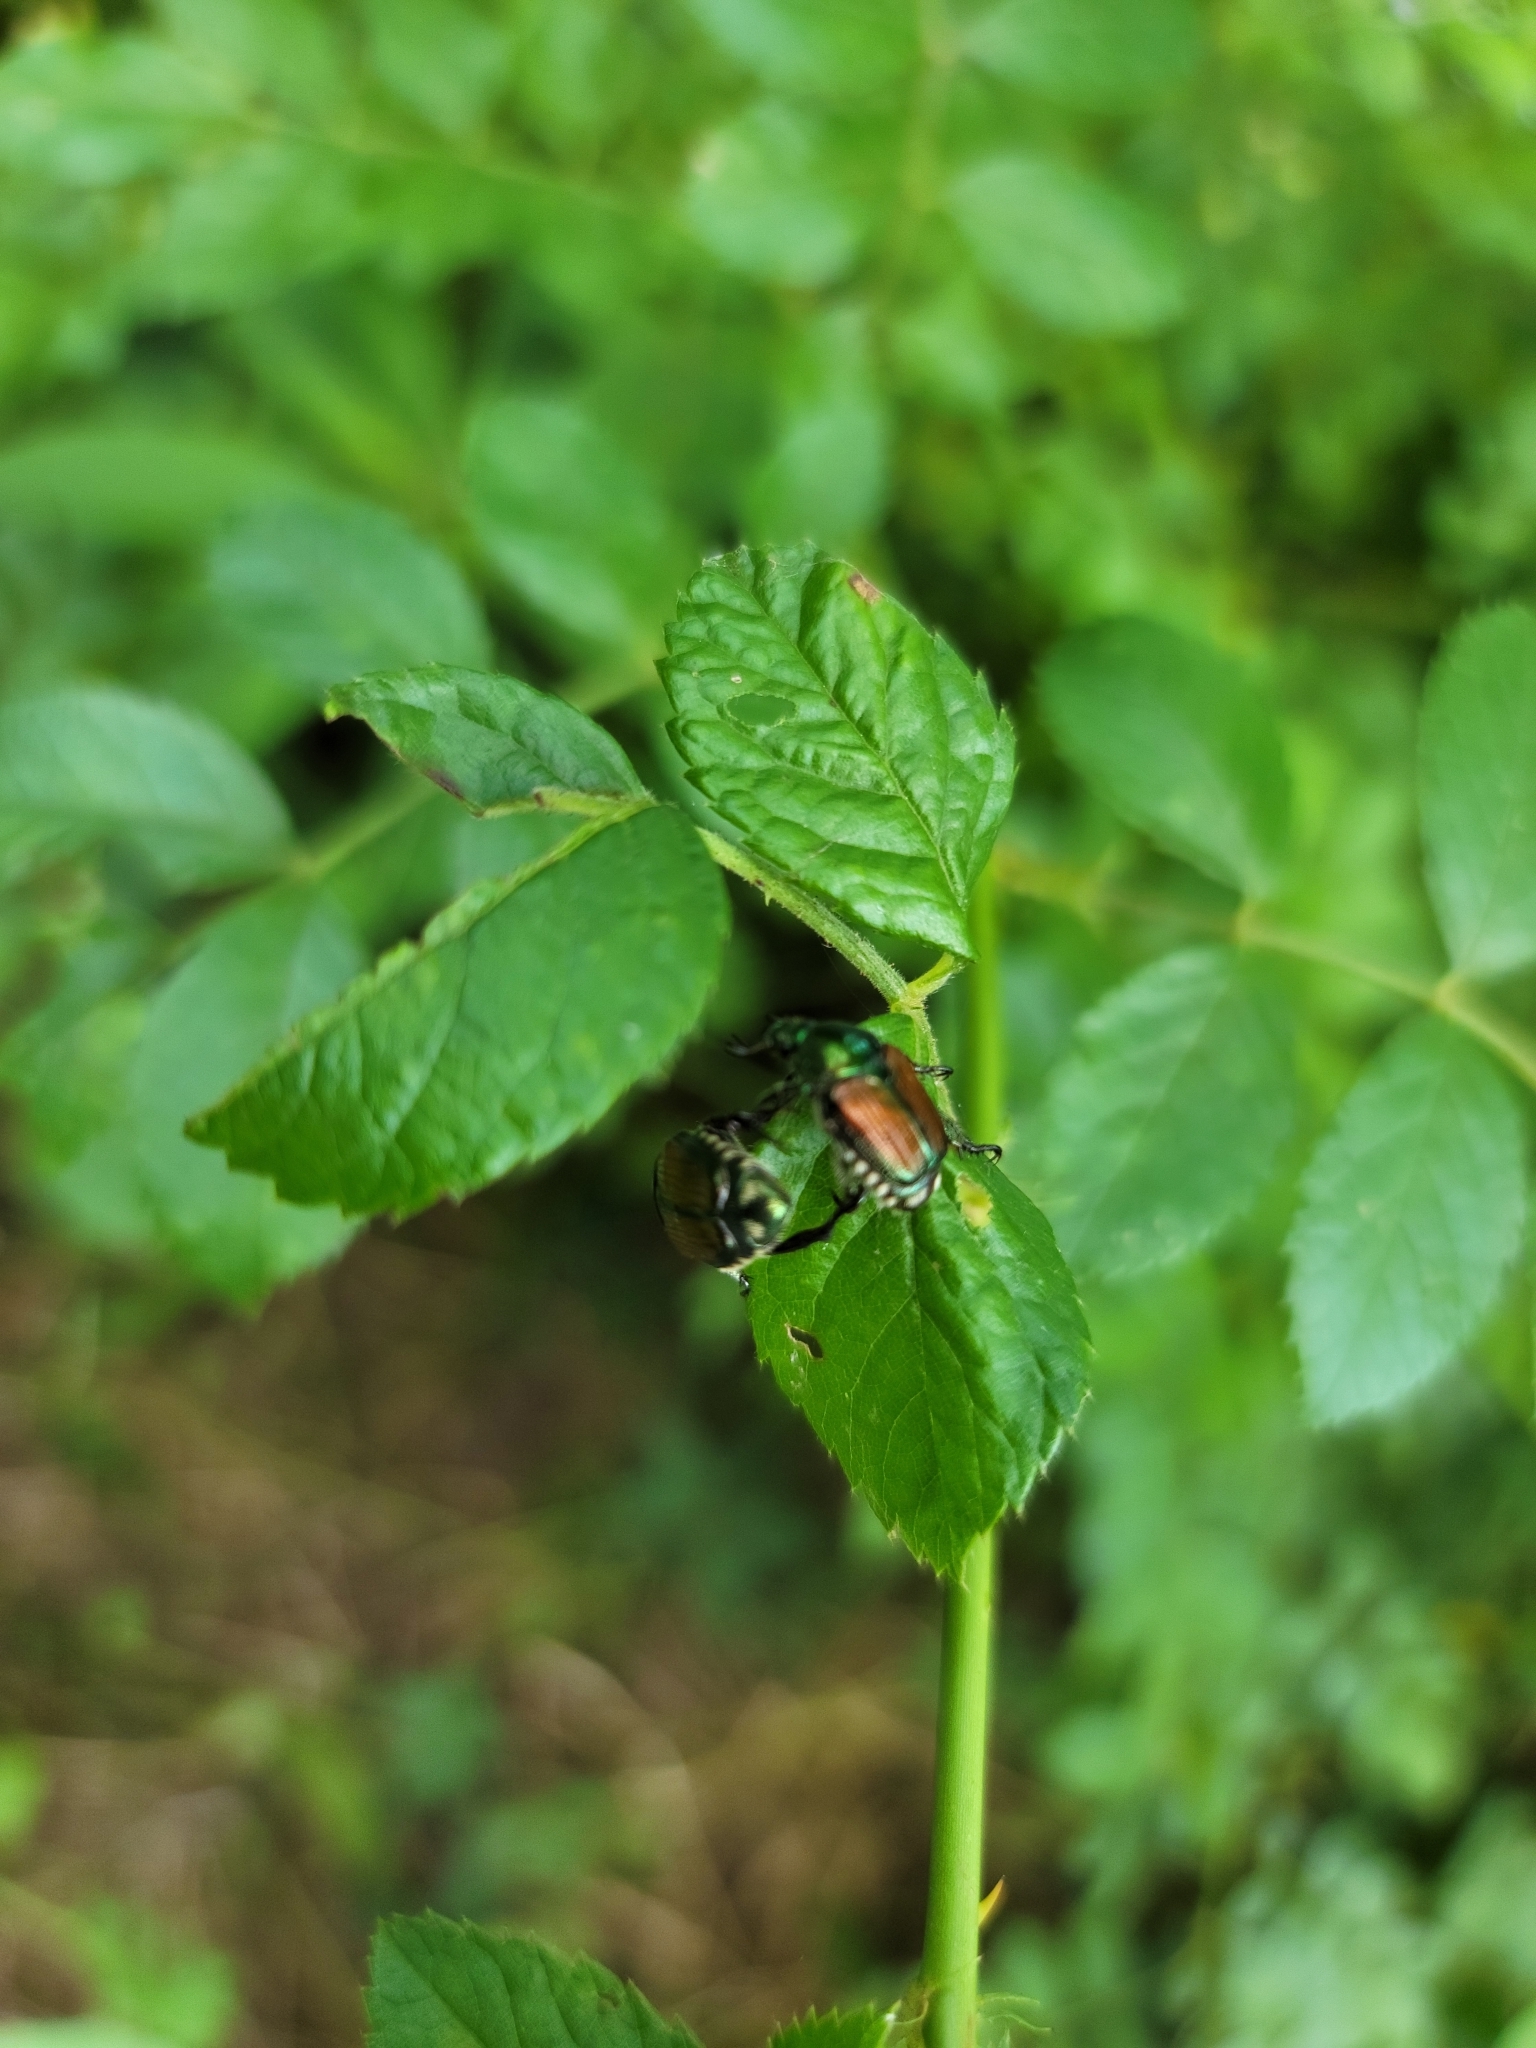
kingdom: Animalia
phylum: Arthropoda
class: Insecta
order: Coleoptera
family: Scarabaeidae
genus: Popillia
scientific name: Popillia japonica
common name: Japanese beetle
